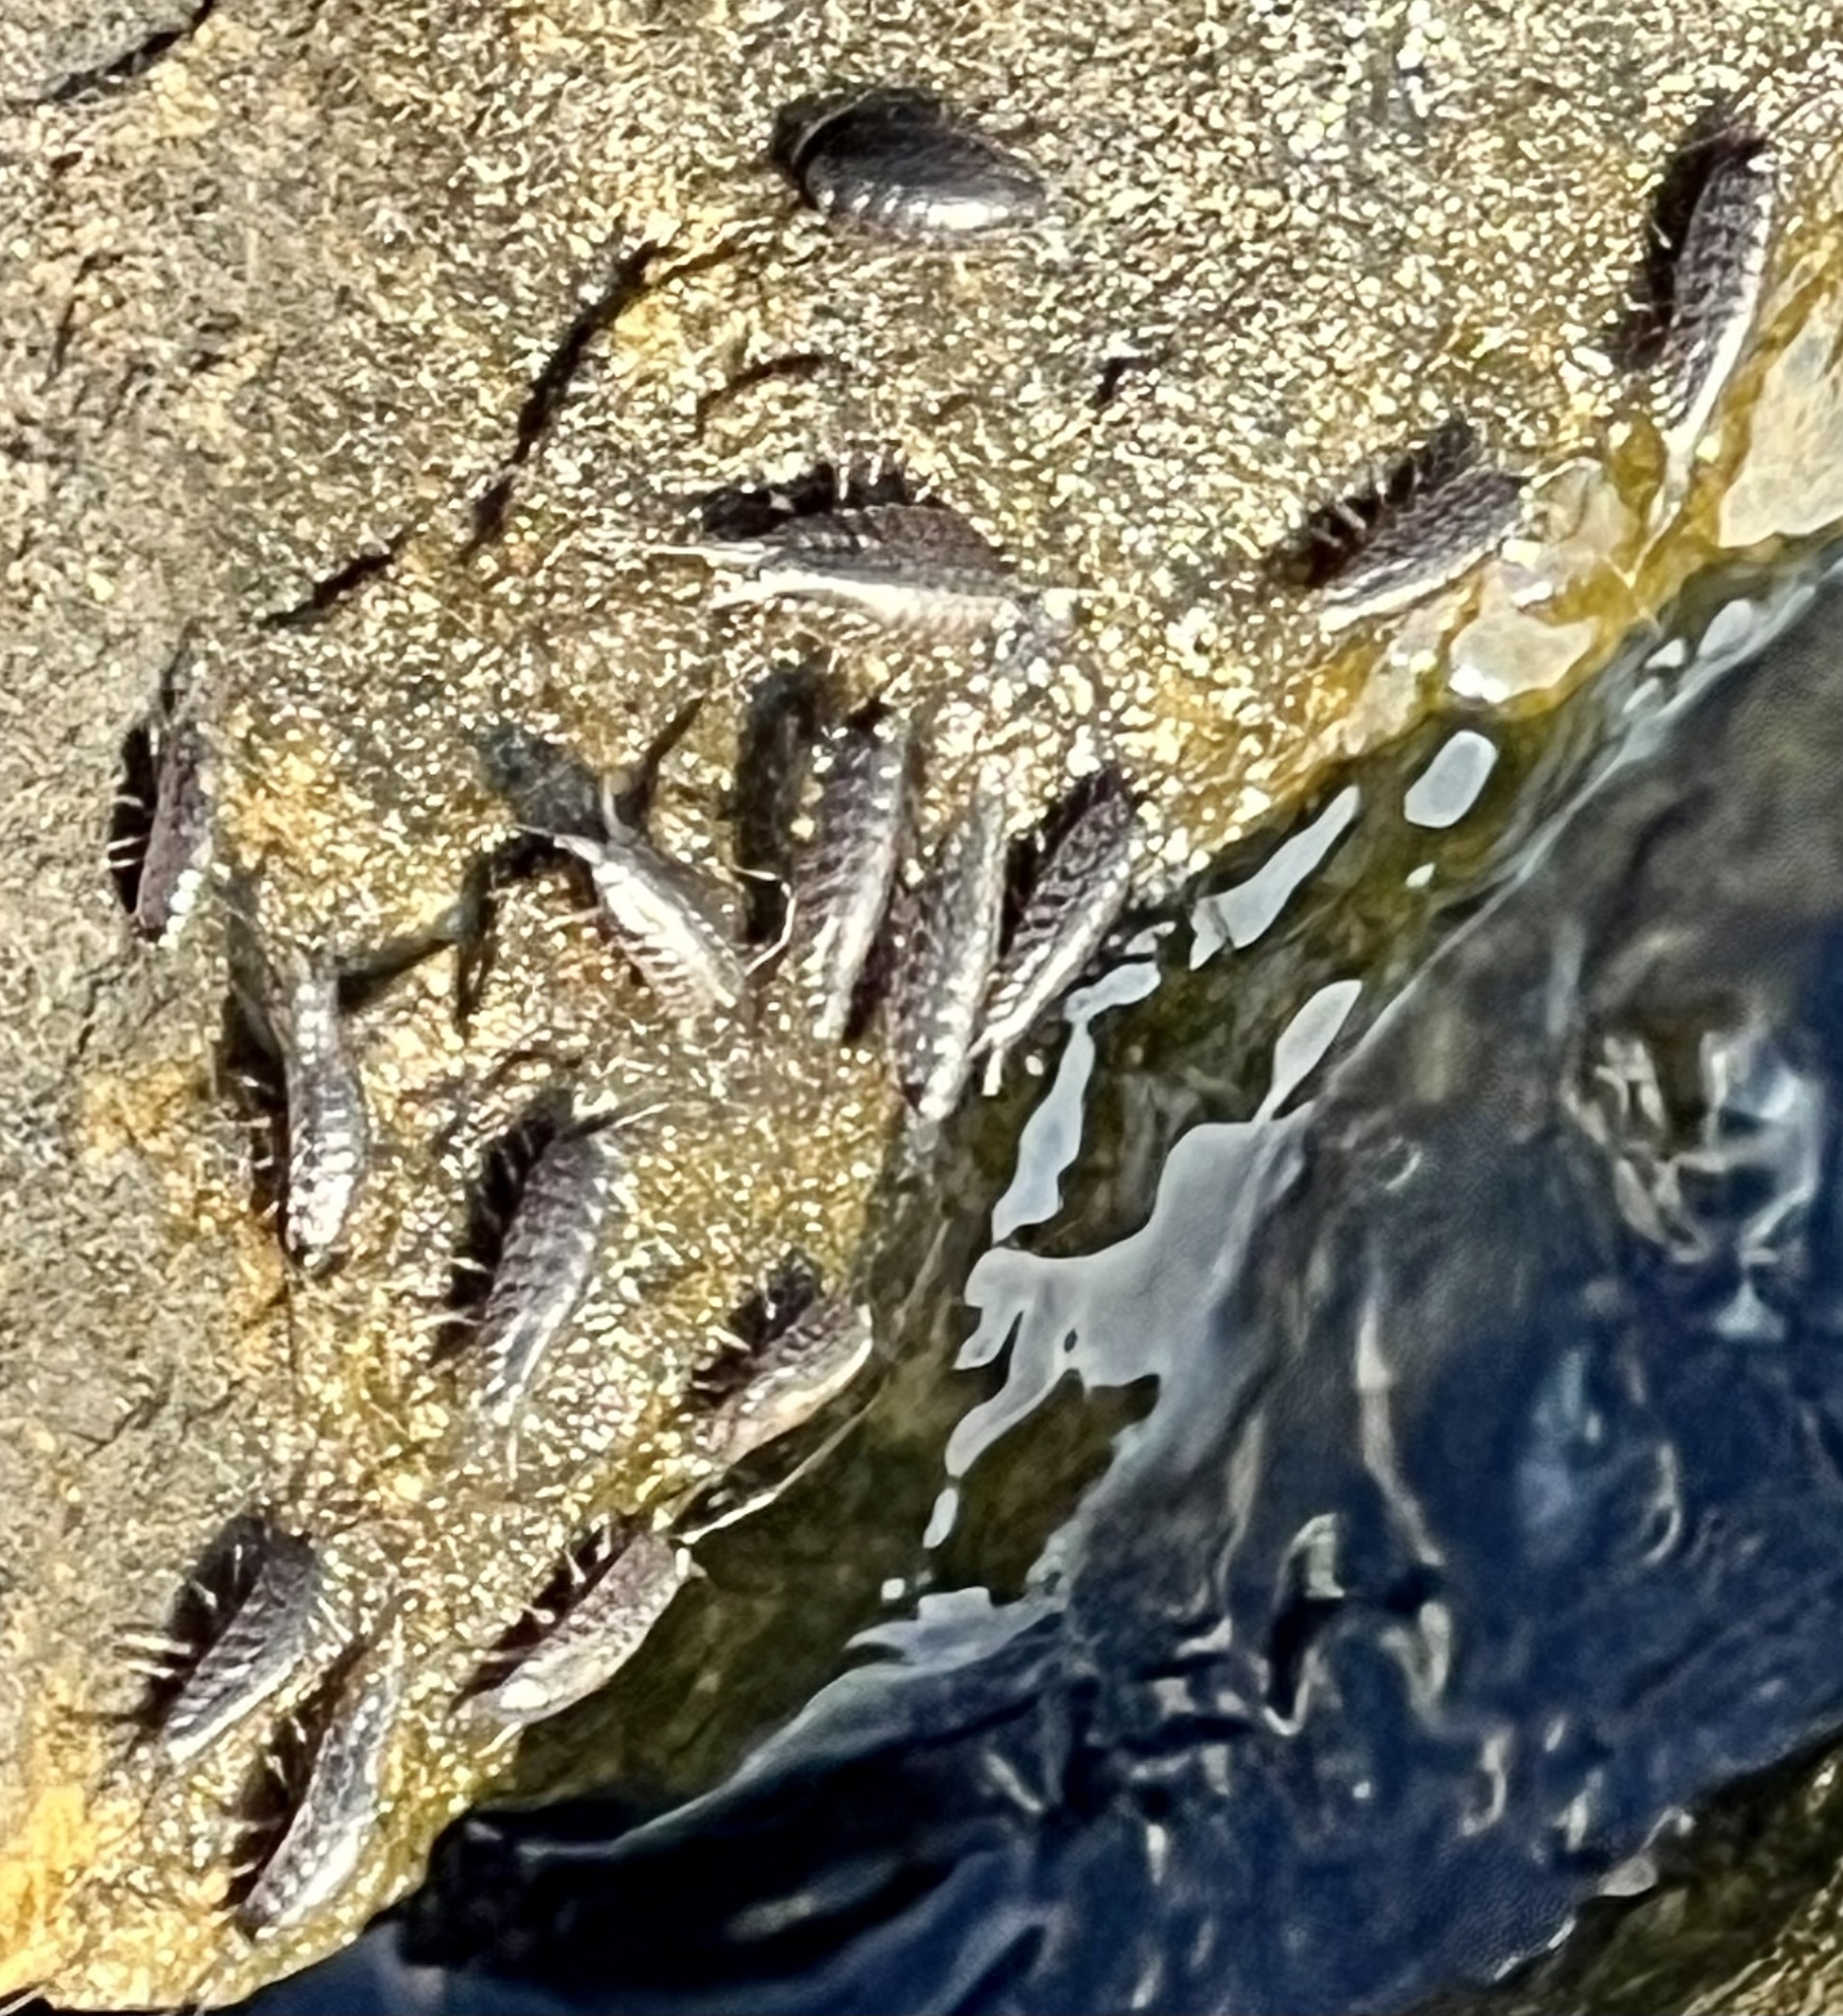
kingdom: Animalia
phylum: Arthropoda
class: Malacostraca
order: Isopoda
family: Ligiidae
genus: Ligia
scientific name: Ligia exotica
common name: Wharf roach
